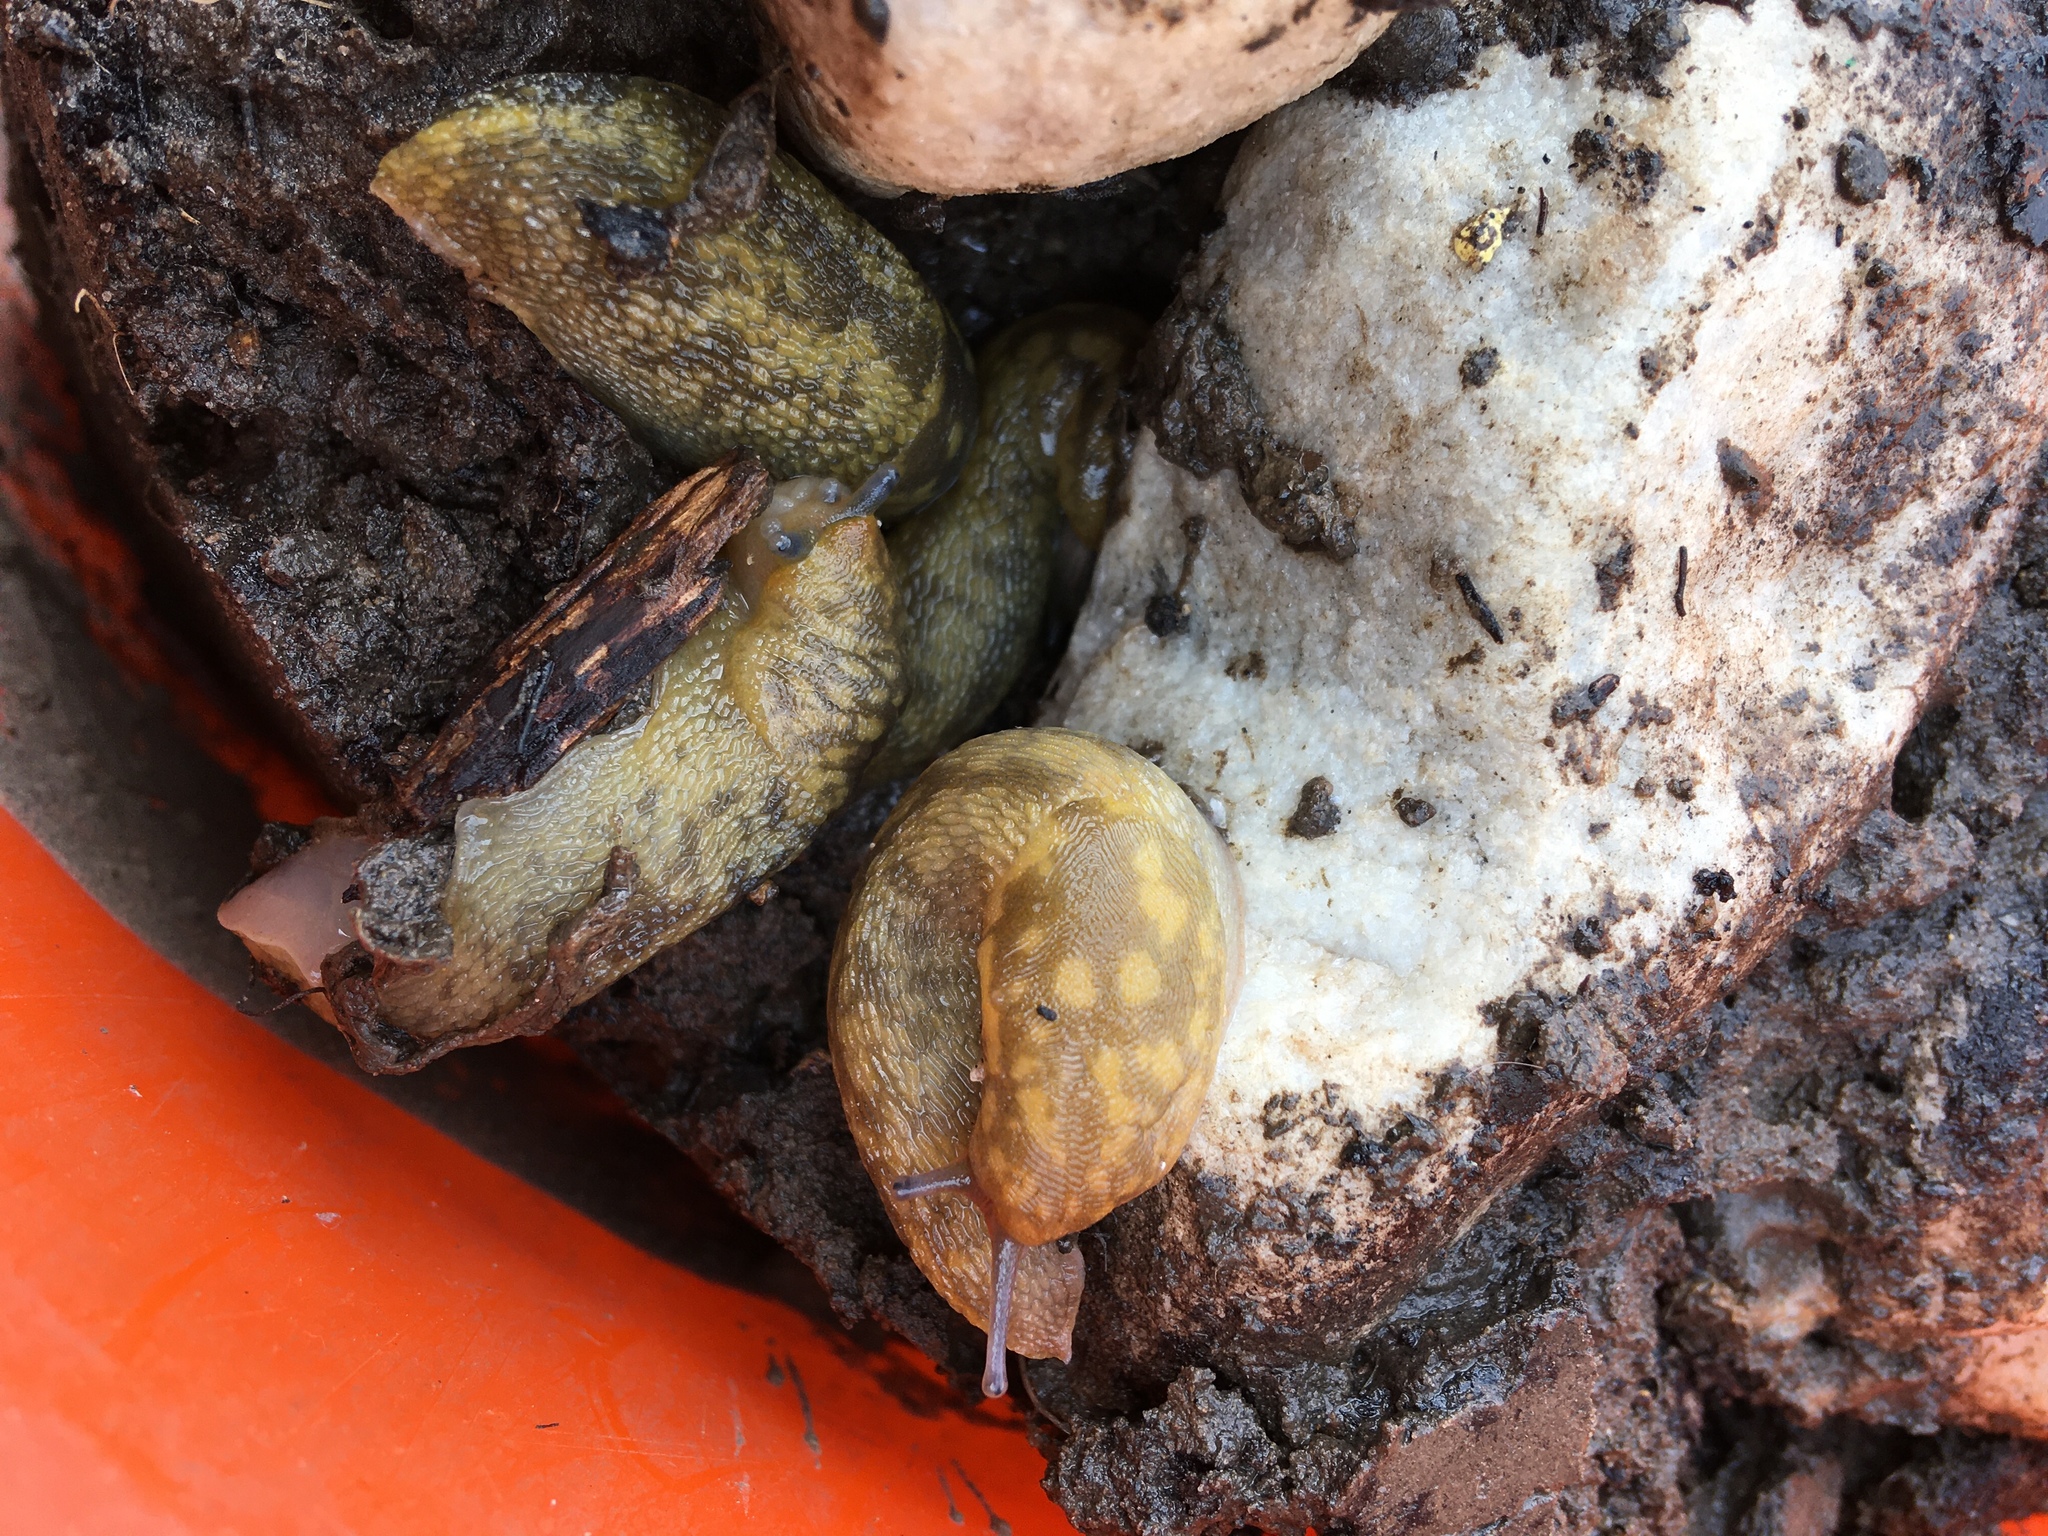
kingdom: Animalia
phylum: Mollusca
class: Gastropoda
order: Stylommatophora
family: Limacidae
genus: Limacus
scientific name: Limacus maculatus
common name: Irish yellow slug
